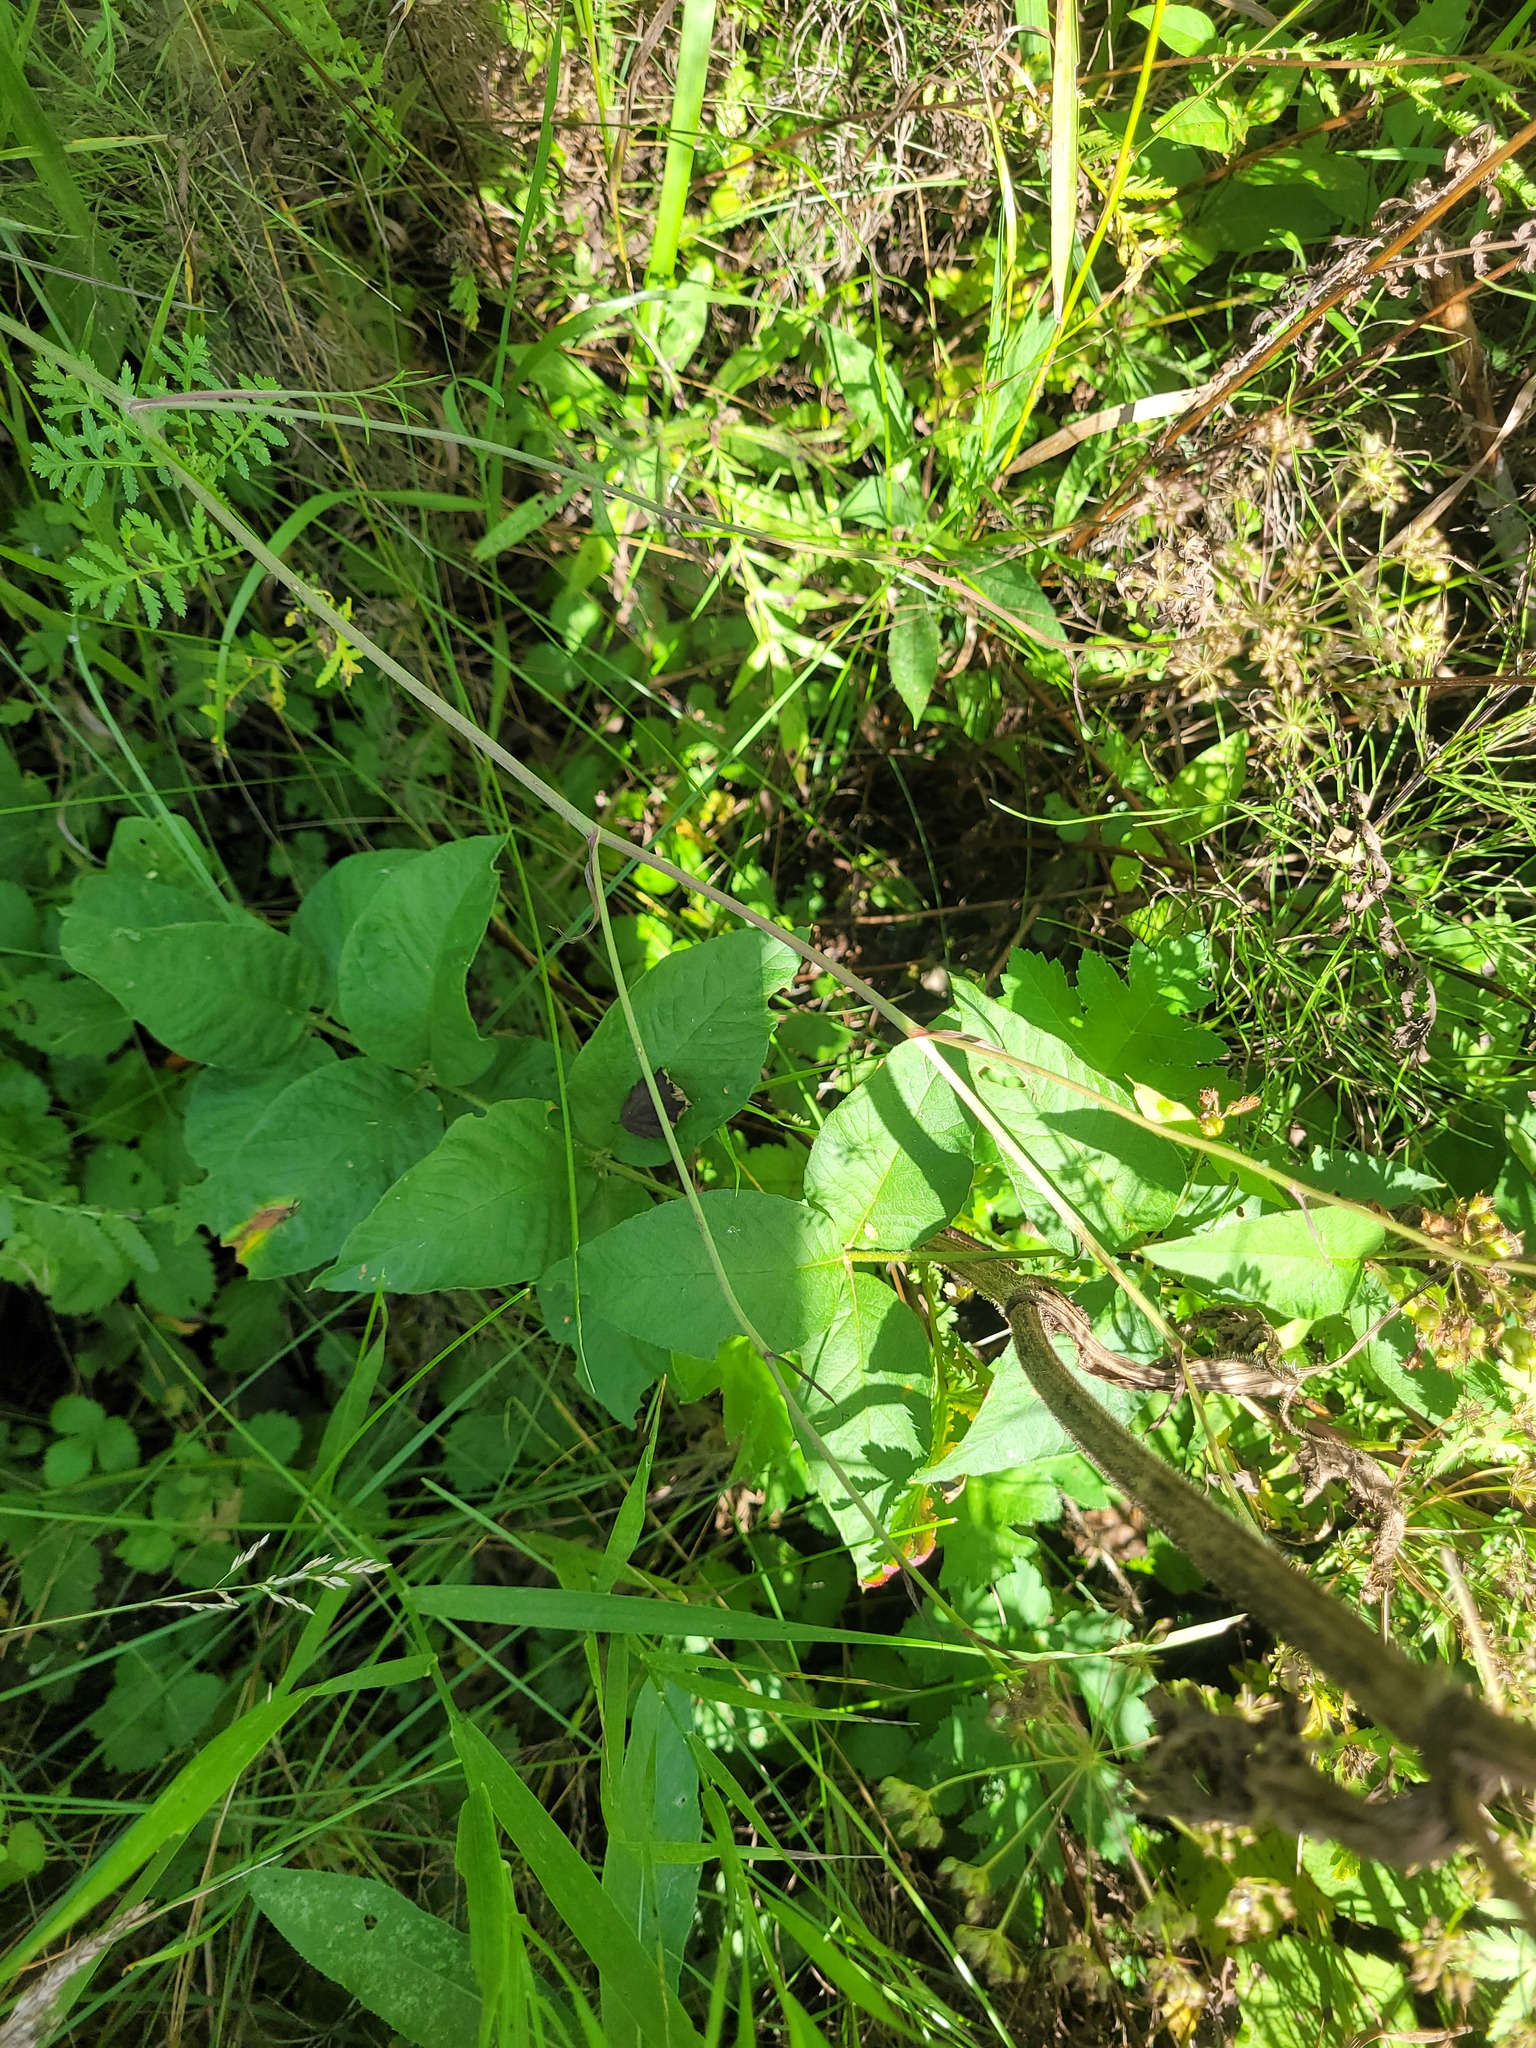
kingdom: Plantae
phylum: Tracheophyta
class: Magnoliopsida
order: Ericales
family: Primulaceae
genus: Lysimachia
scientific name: Lysimachia vulgaris
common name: Yellow loosestrife
